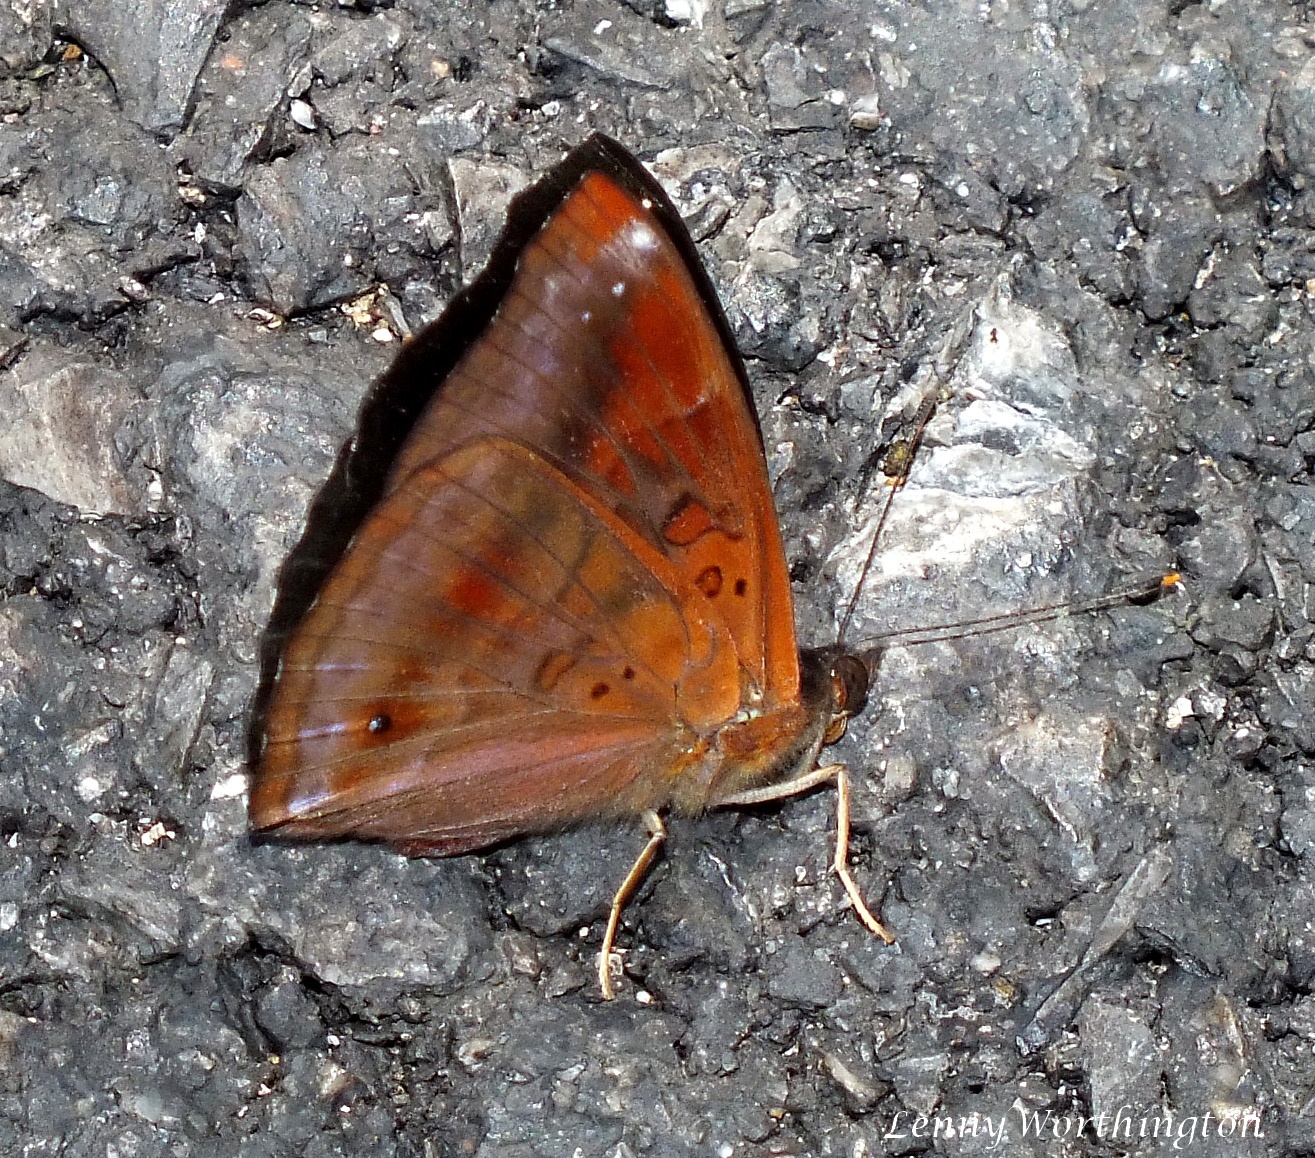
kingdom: Animalia
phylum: Arthropoda
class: Insecta
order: Lepidoptera
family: Nymphalidae
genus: Apatura
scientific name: Apatura Rohana spec
